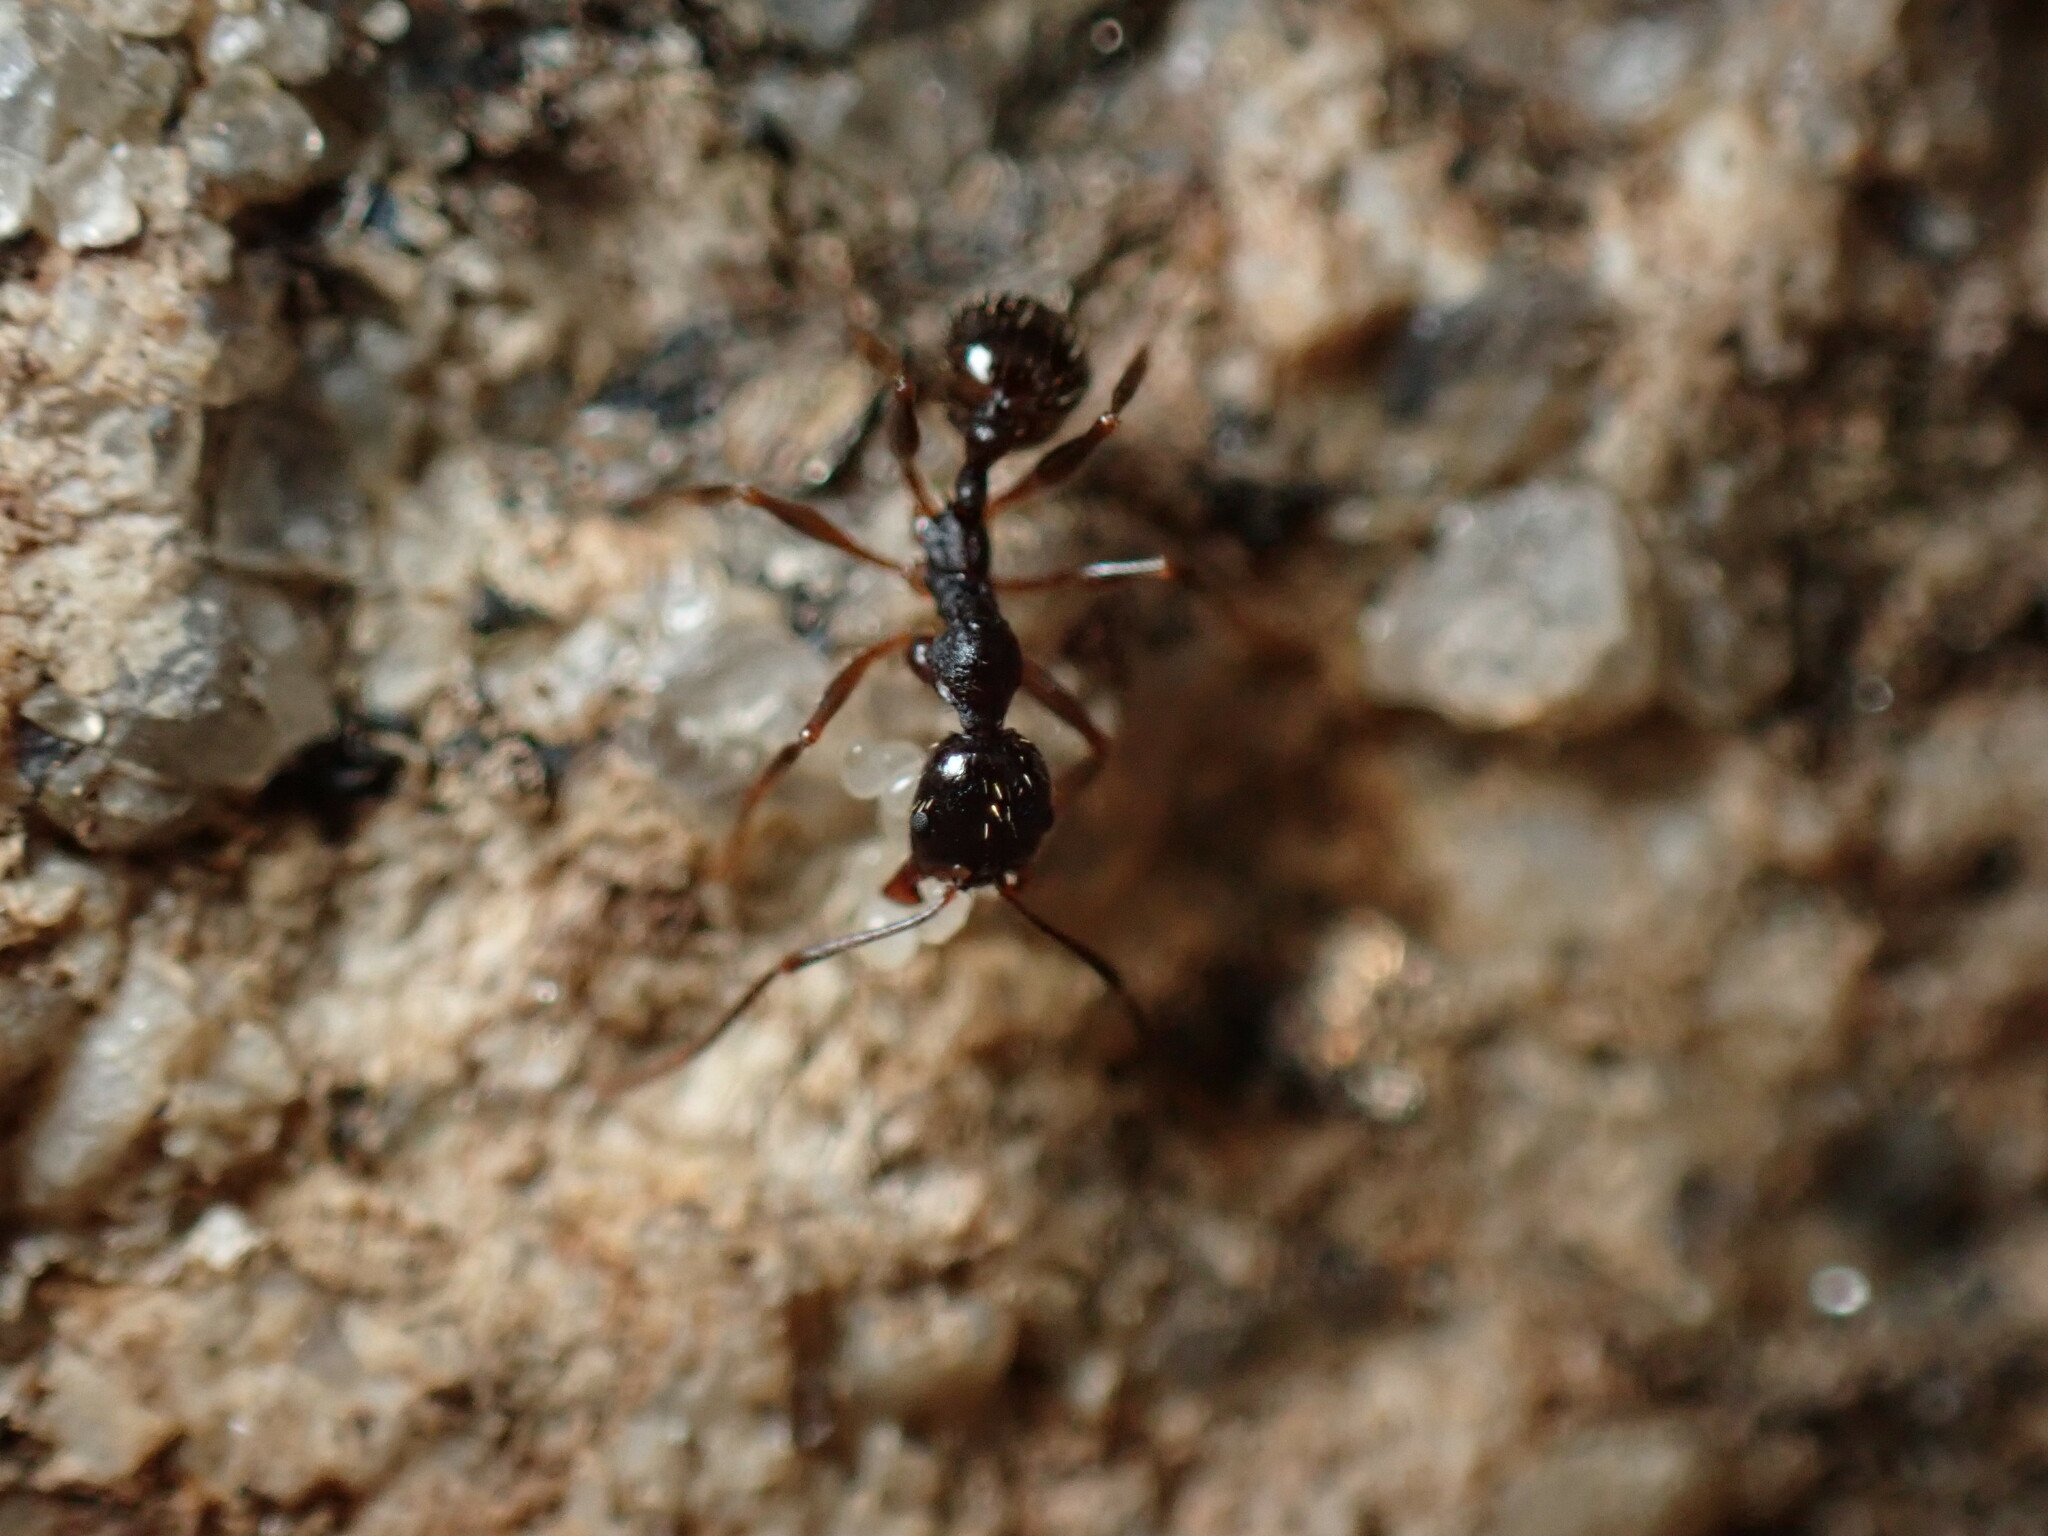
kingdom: Animalia
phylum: Arthropoda
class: Insecta
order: Hymenoptera
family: Formicidae
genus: Aphaenogaster
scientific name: Aphaenogaster picea
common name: Pitch-black collared ant
